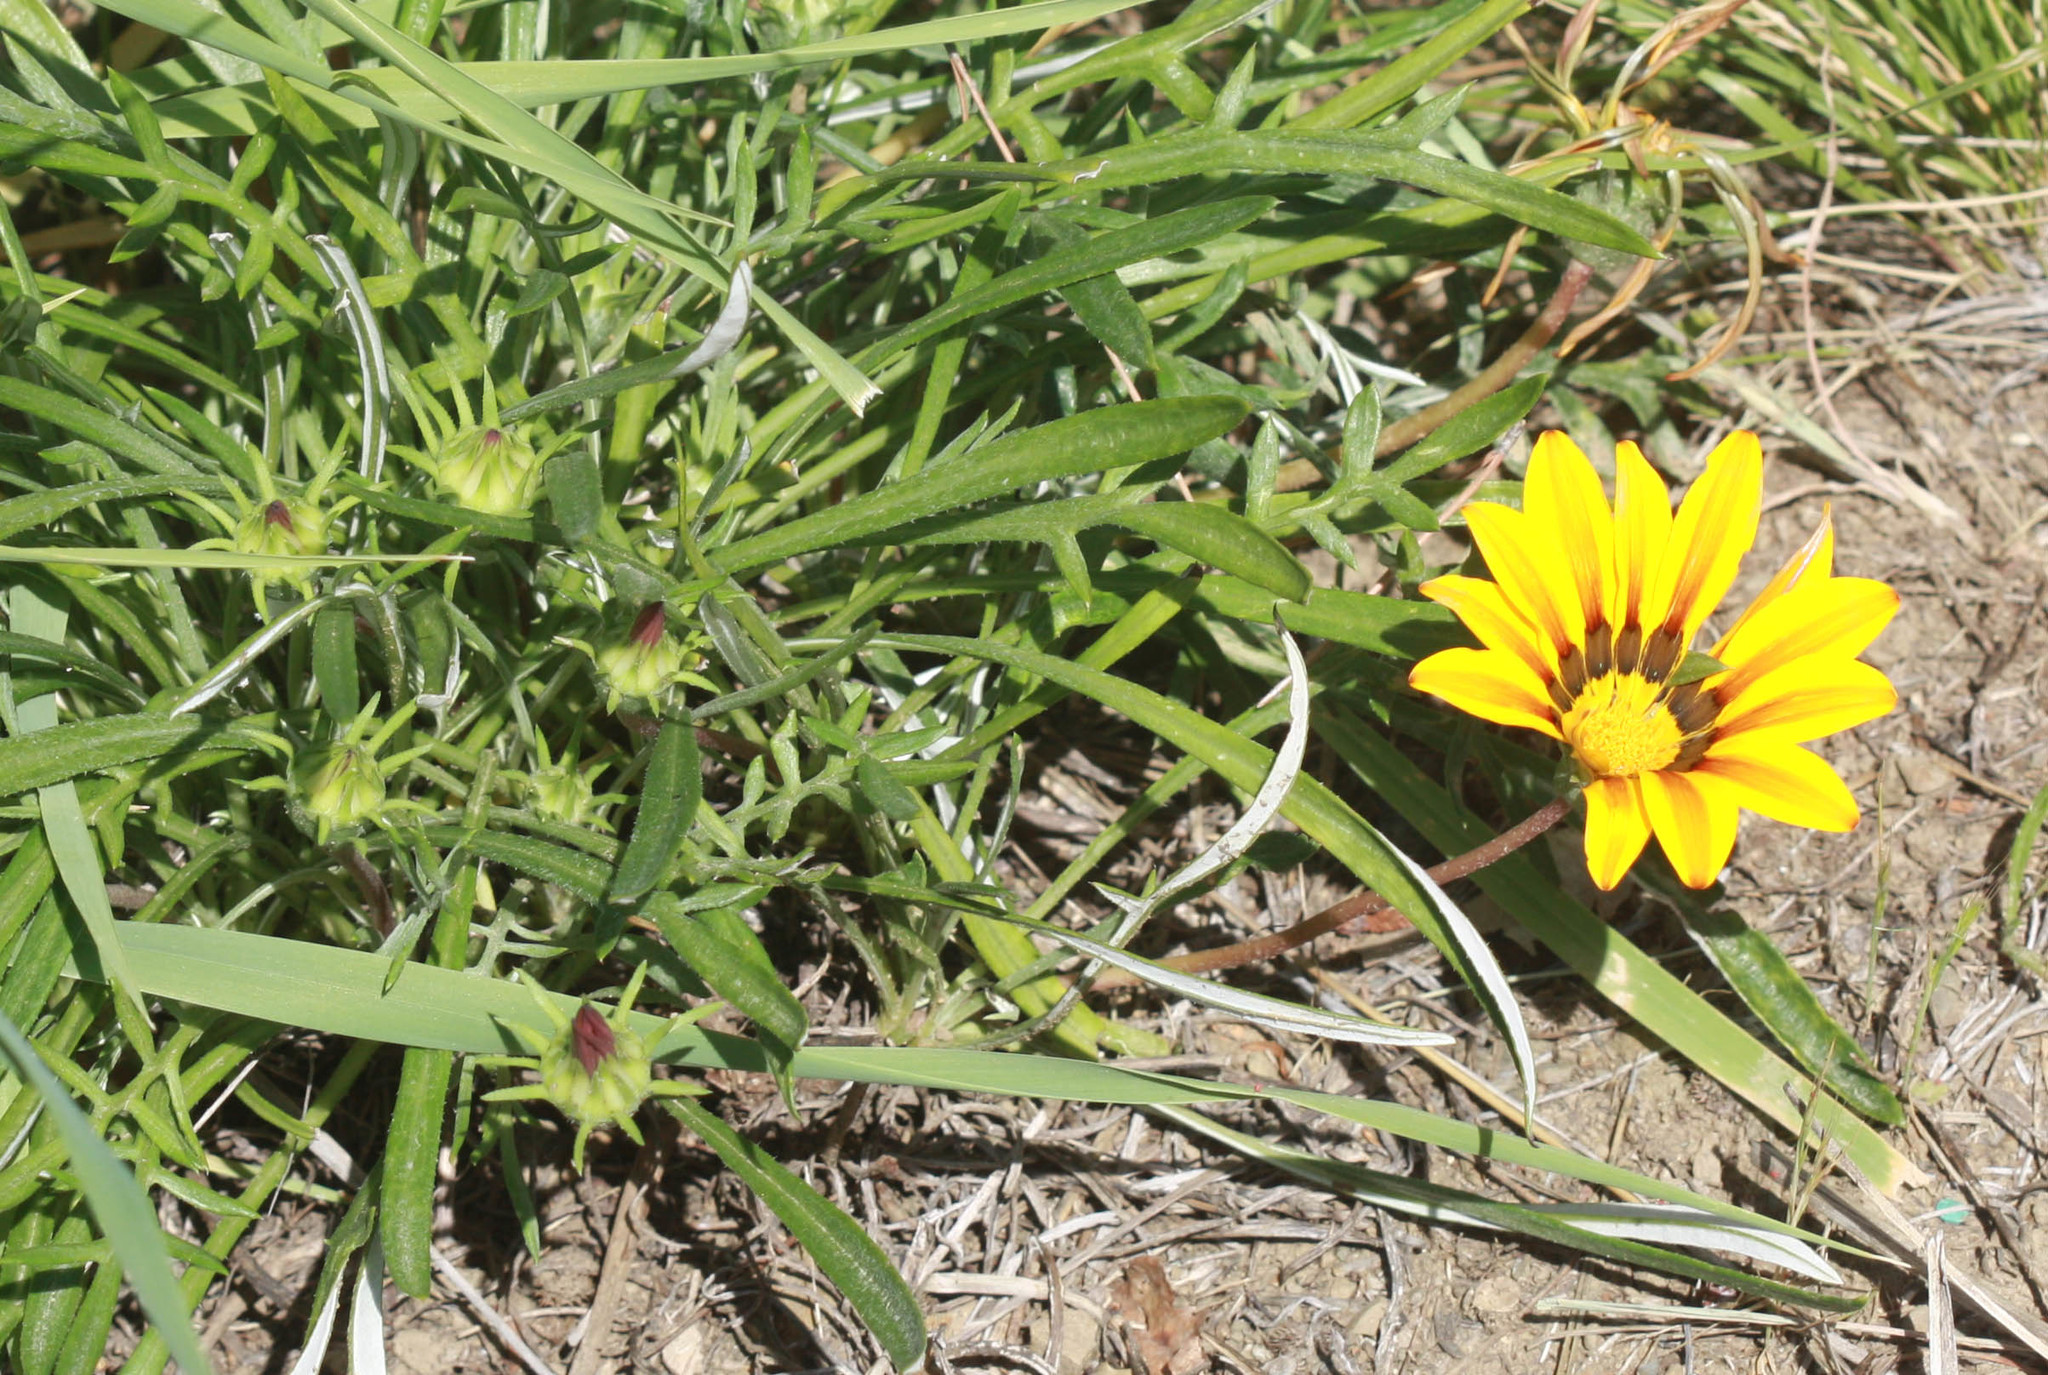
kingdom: Plantae
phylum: Tracheophyta
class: Magnoliopsida
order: Asterales
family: Asteraceae
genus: Gazania
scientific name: Gazania linearis
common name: Treasureflower
